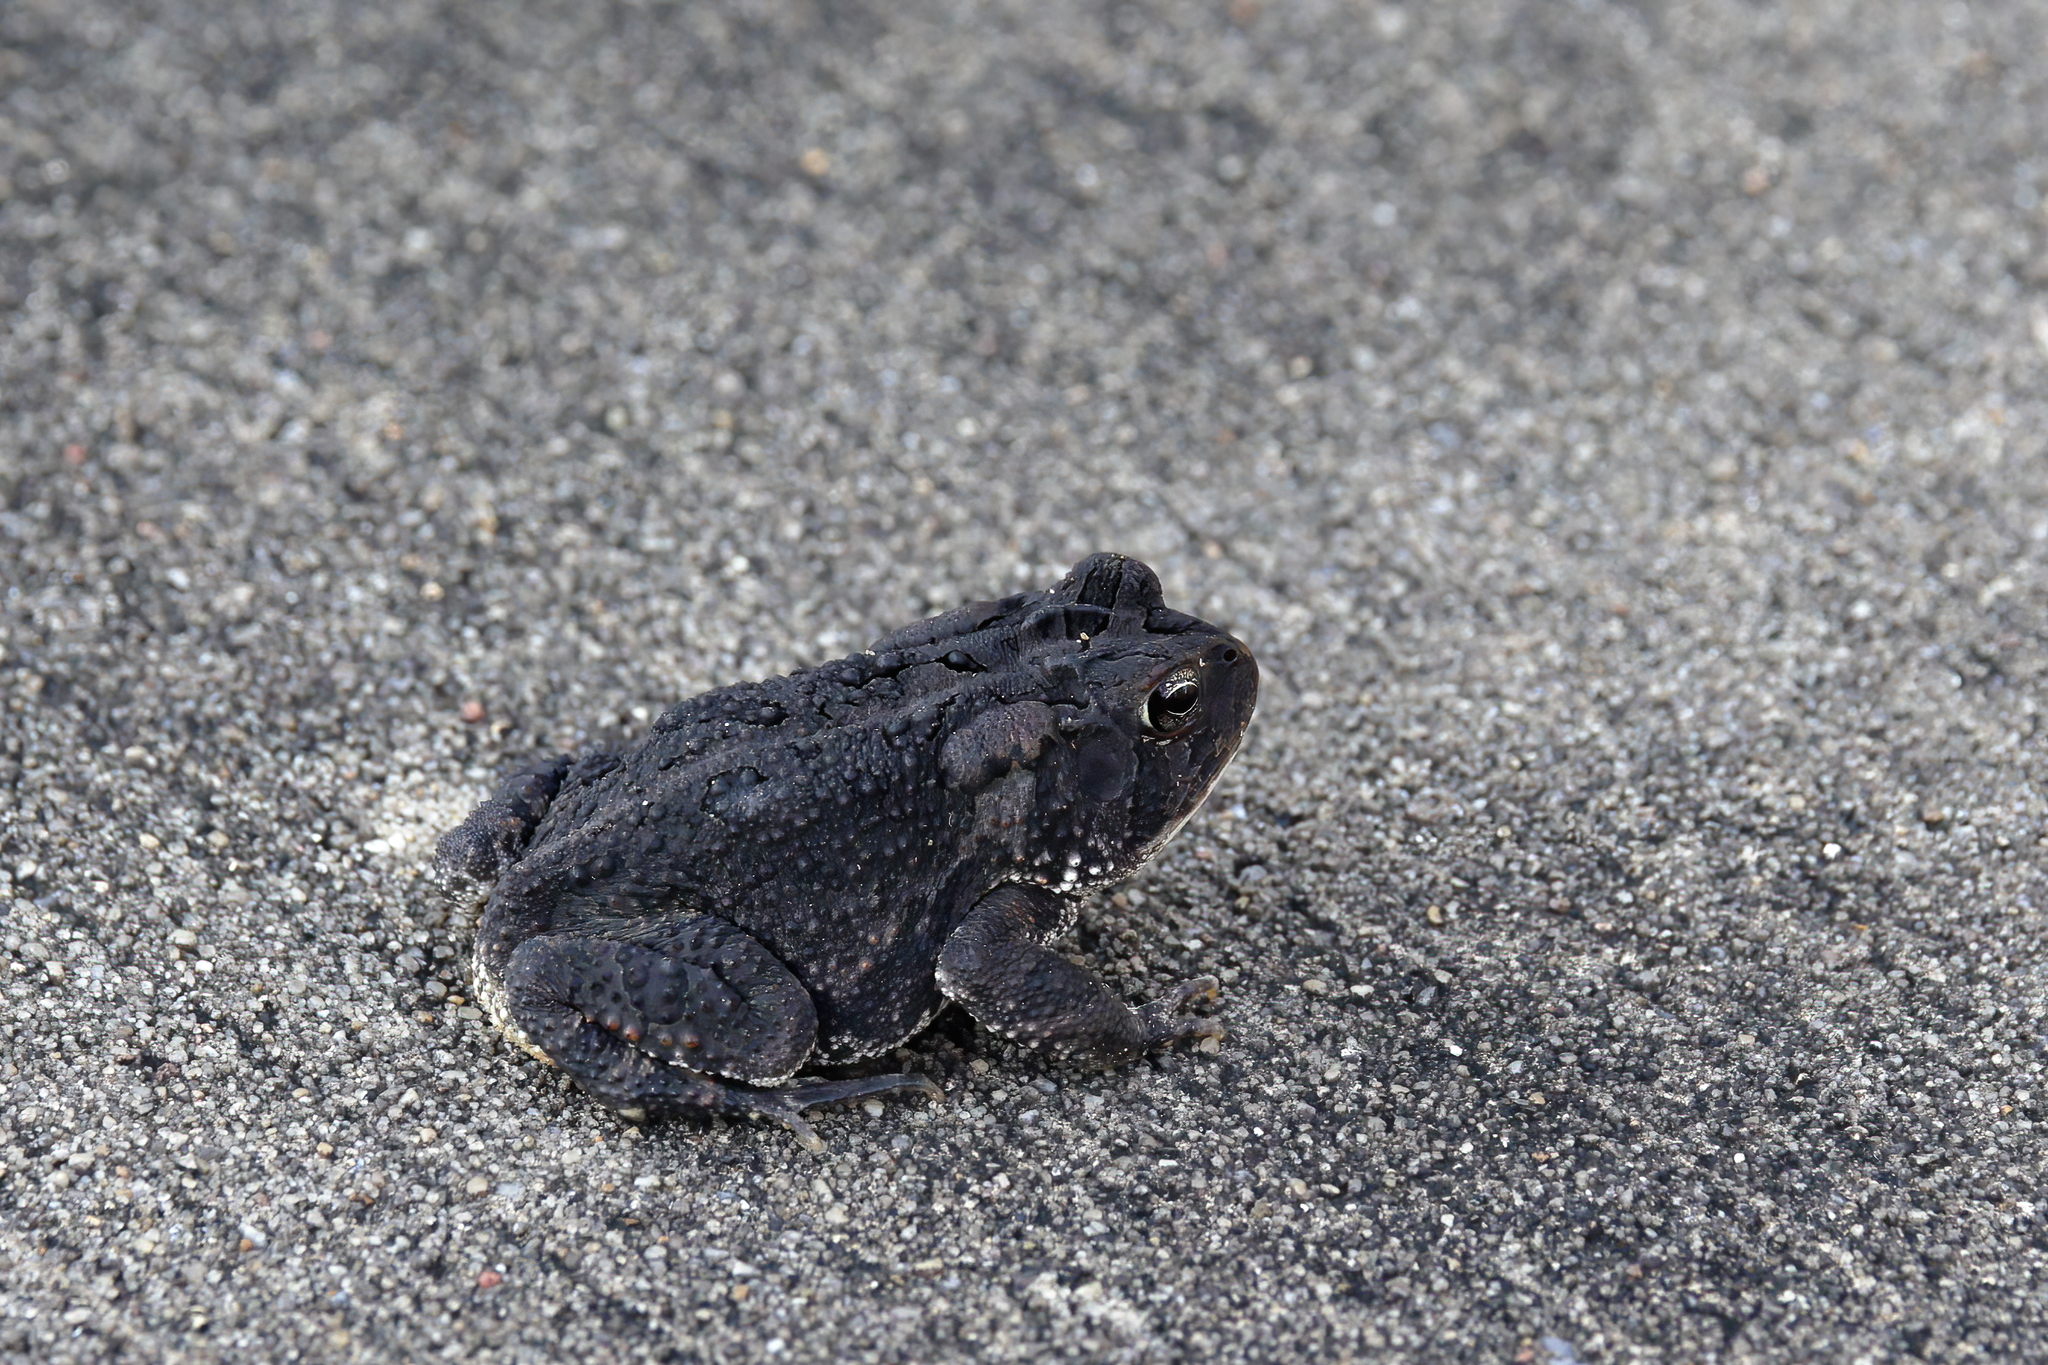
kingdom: Animalia
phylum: Chordata
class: Amphibia
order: Anura
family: Bufonidae
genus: Anaxyrus
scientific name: Anaxyrus terrestris
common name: Southern toad
